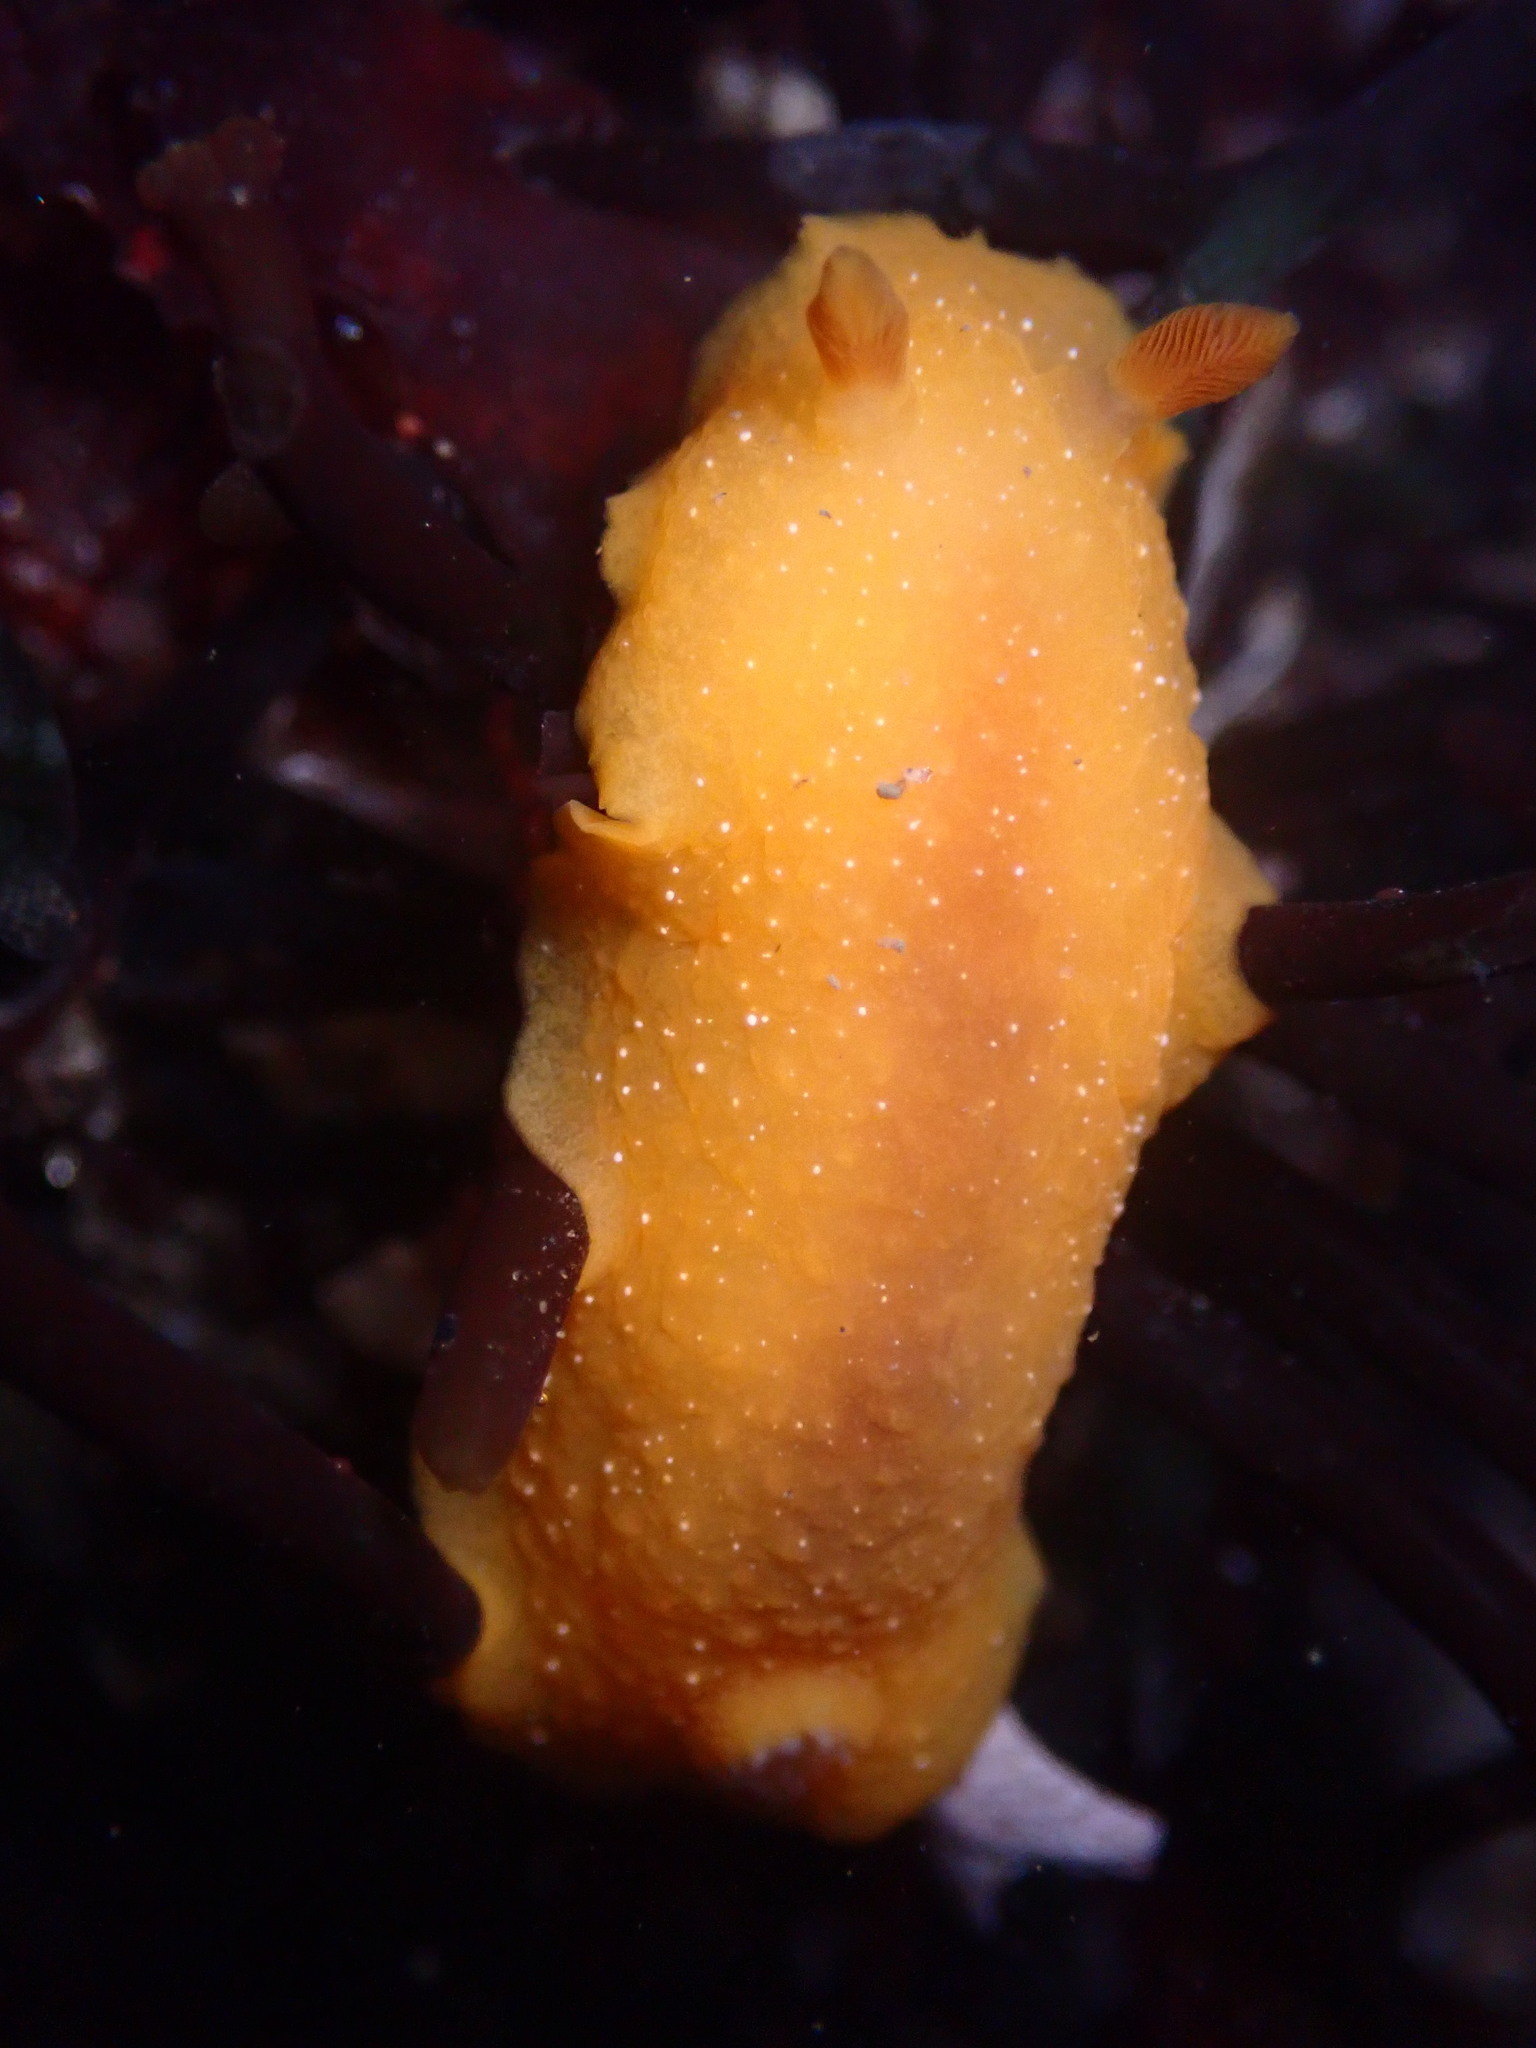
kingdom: Animalia
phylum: Mollusca
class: Gastropoda
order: Nudibranchia
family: Dendrodorididae
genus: Doriopsilla
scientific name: Doriopsilla fulva
